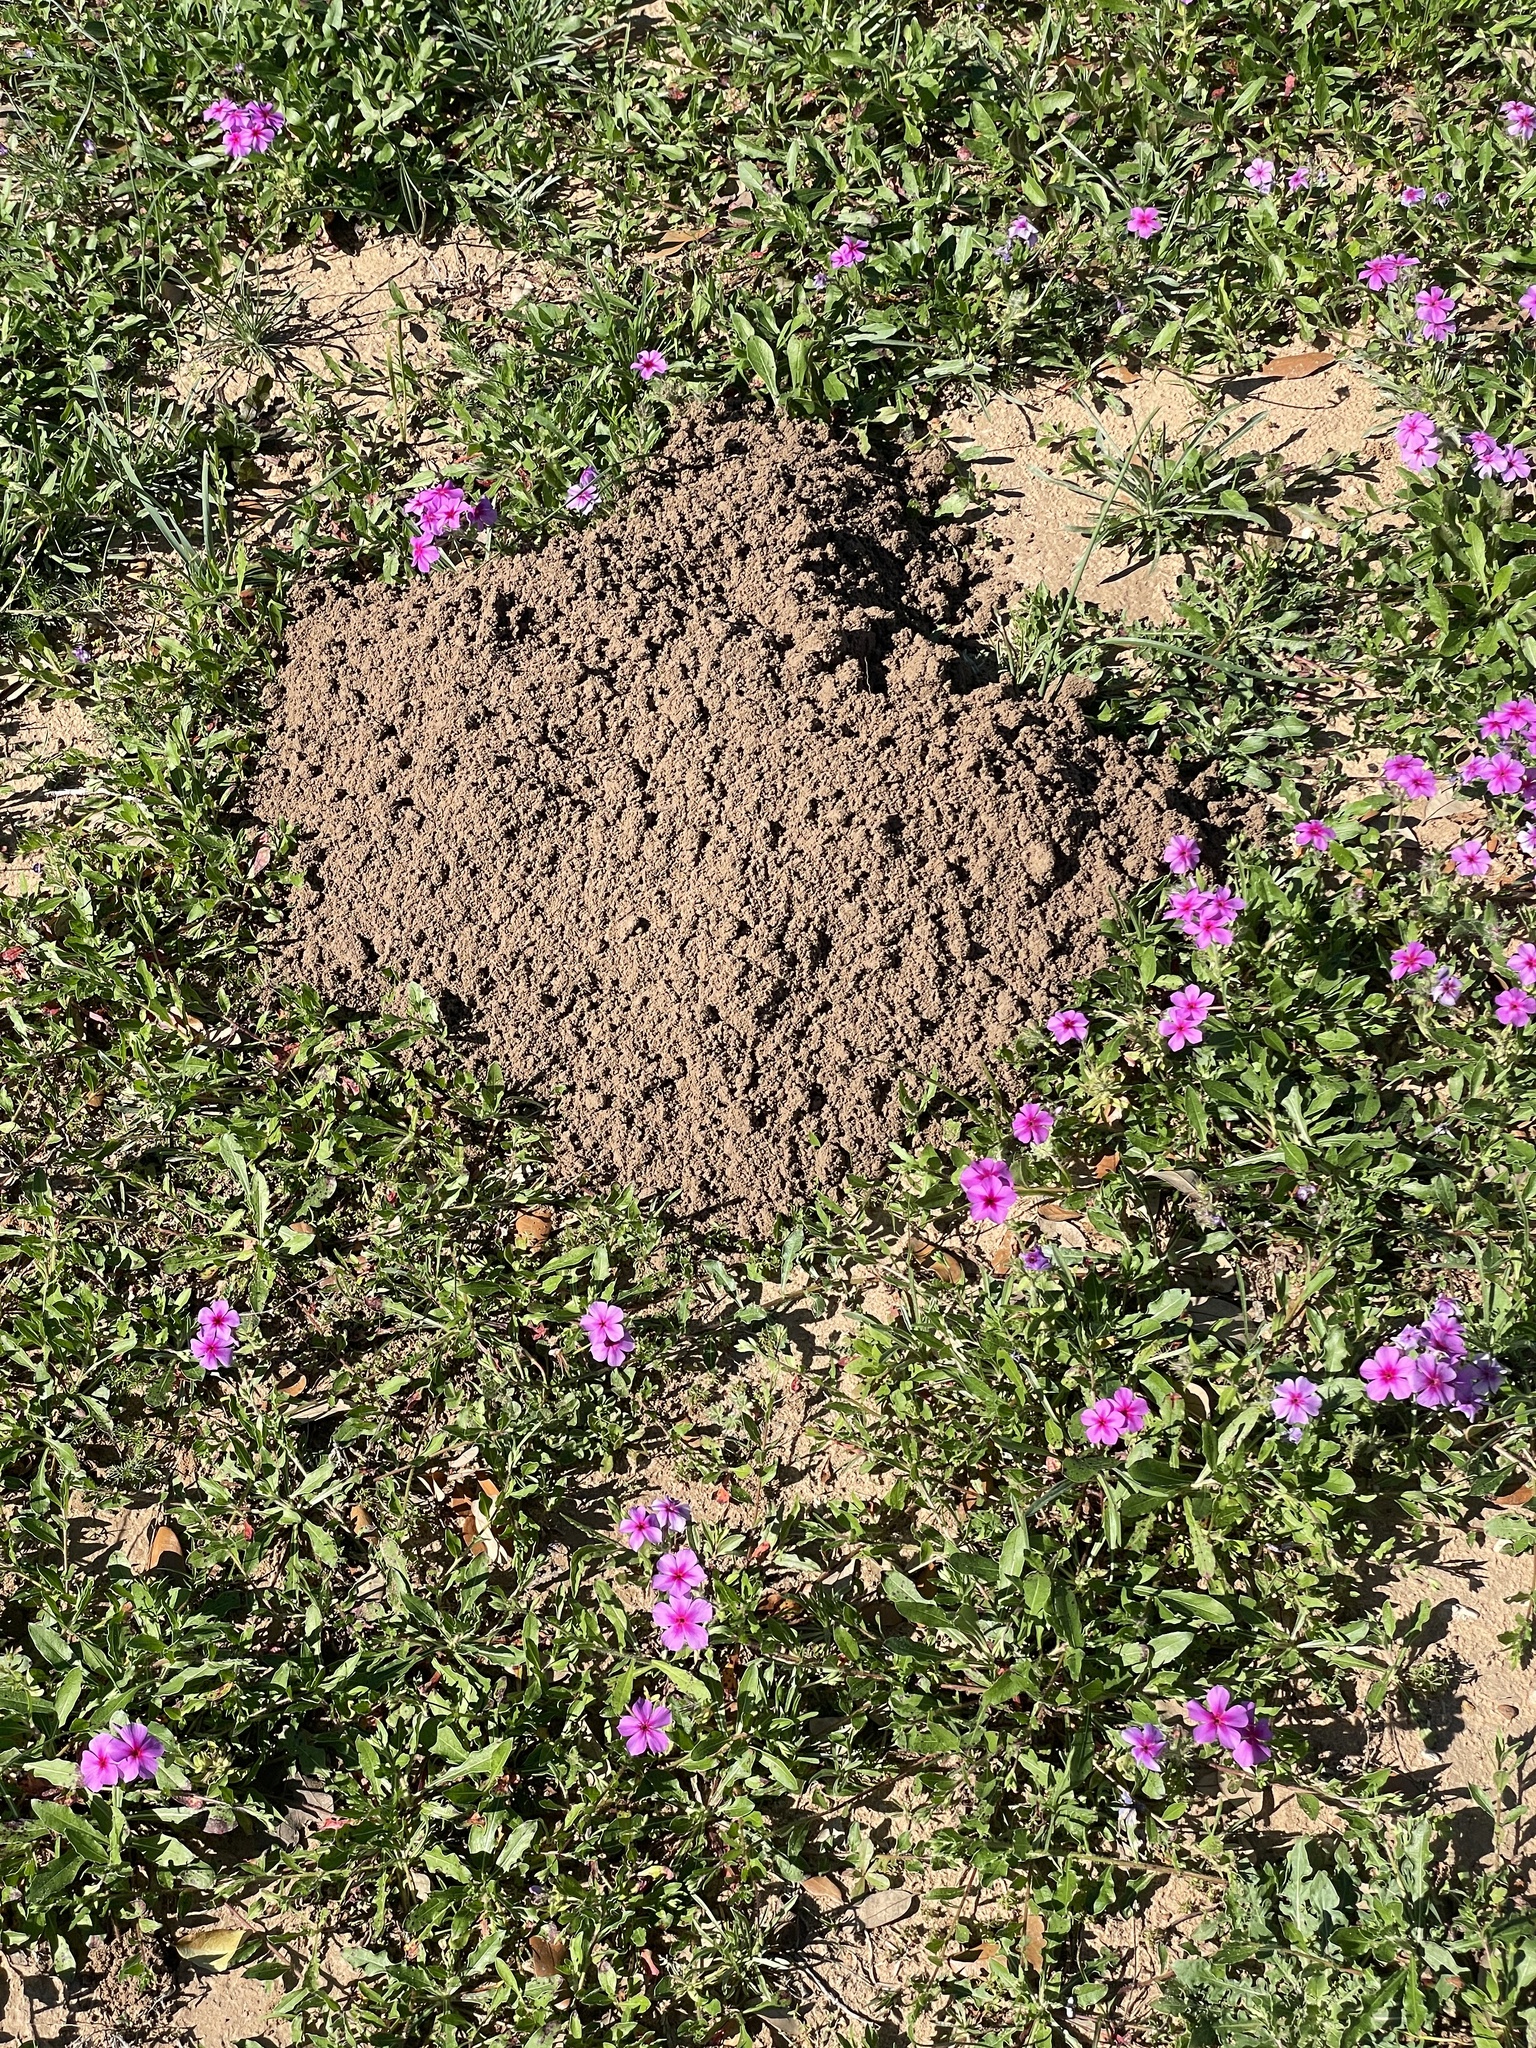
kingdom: Animalia
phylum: Chordata
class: Mammalia
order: Rodentia
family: Geomyidae
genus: Geomys
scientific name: Geomys attwateri
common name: Attwater's pocket gopher
